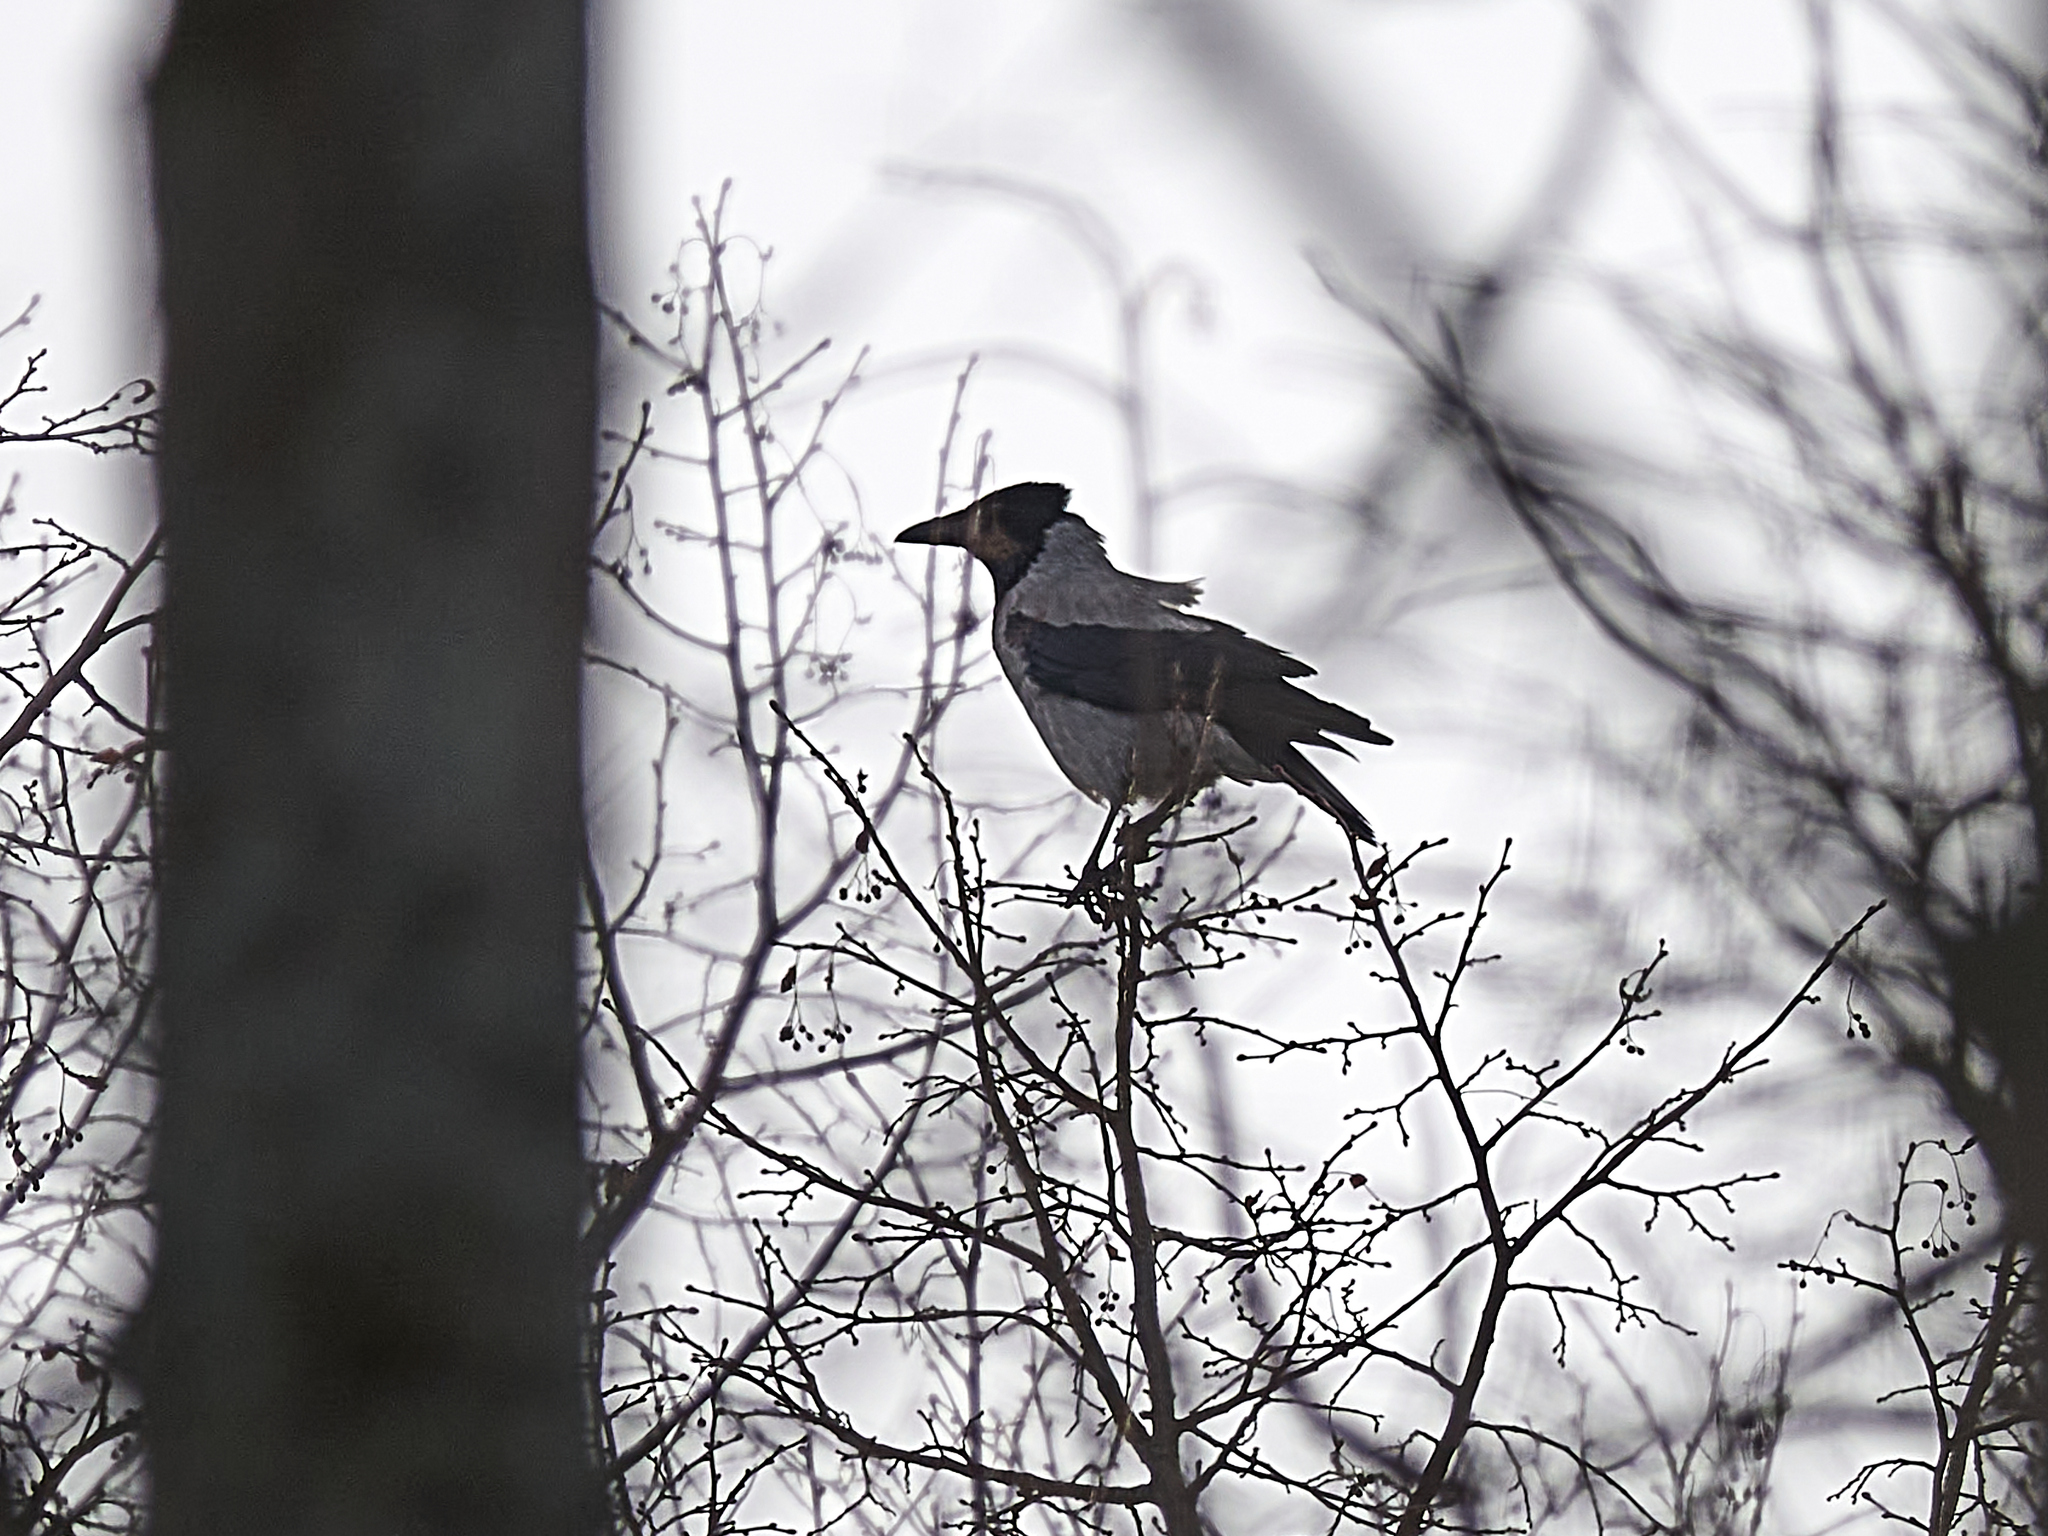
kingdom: Animalia
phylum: Chordata
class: Aves
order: Passeriformes
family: Corvidae
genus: Corvus
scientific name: Corvus cornix
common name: Hooded crow
